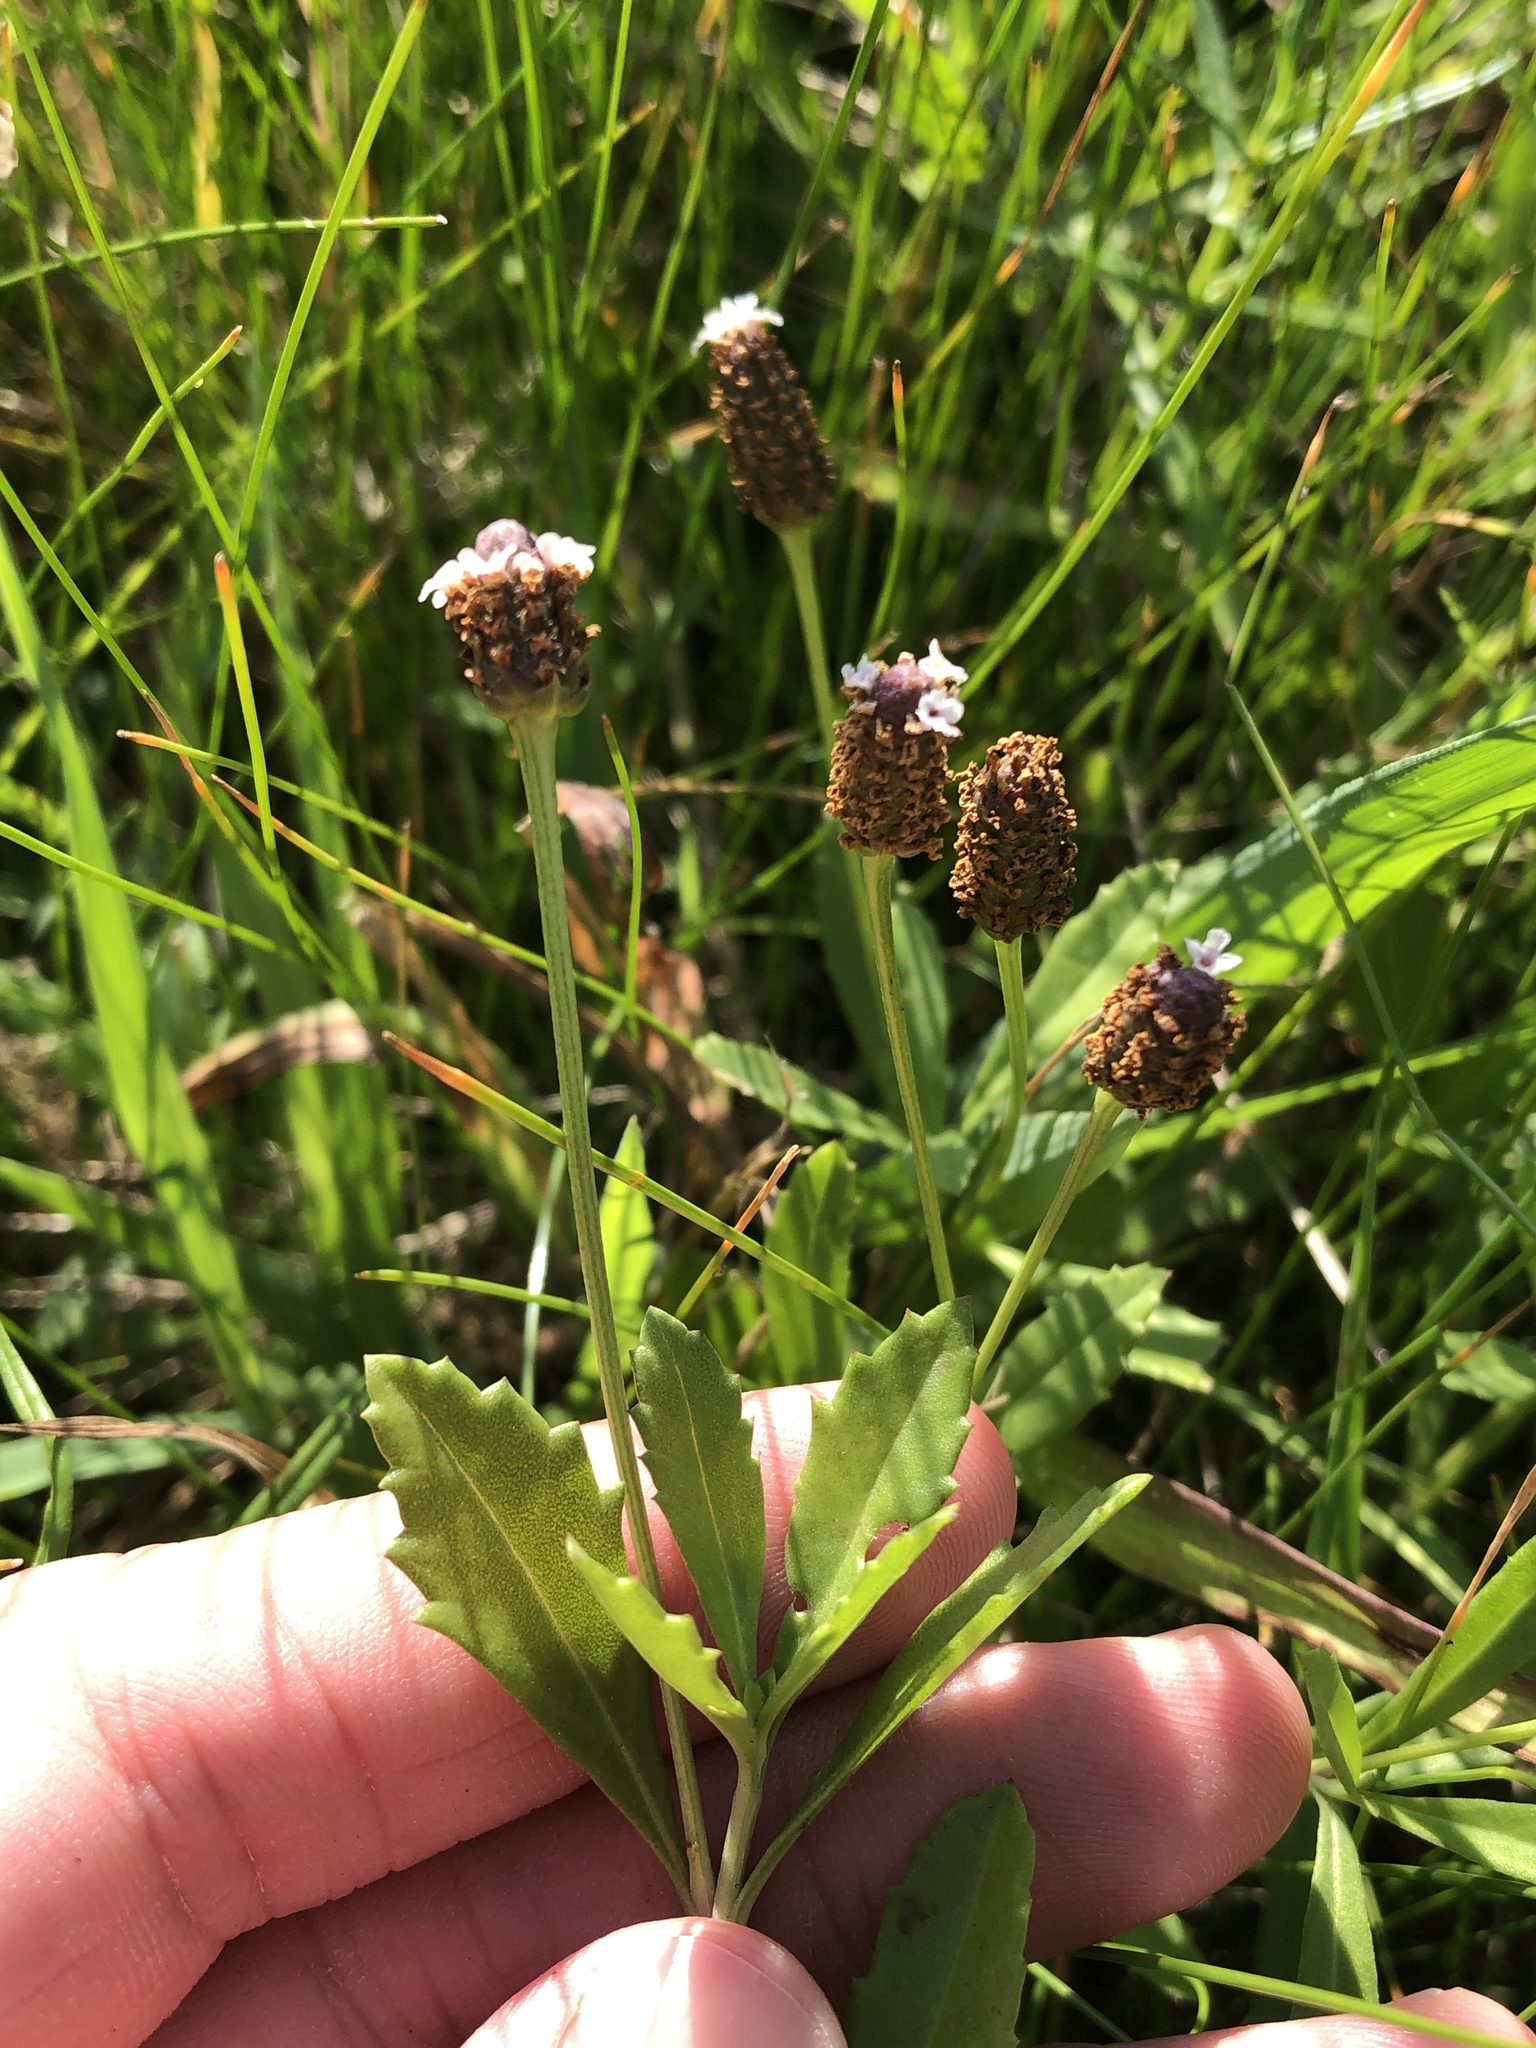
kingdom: Plantae
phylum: Tracheophyta
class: Magnoliopsida
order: Lamiales
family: Verbenaceae
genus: Phyla
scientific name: Phyla nodiflora
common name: Frogfruit
